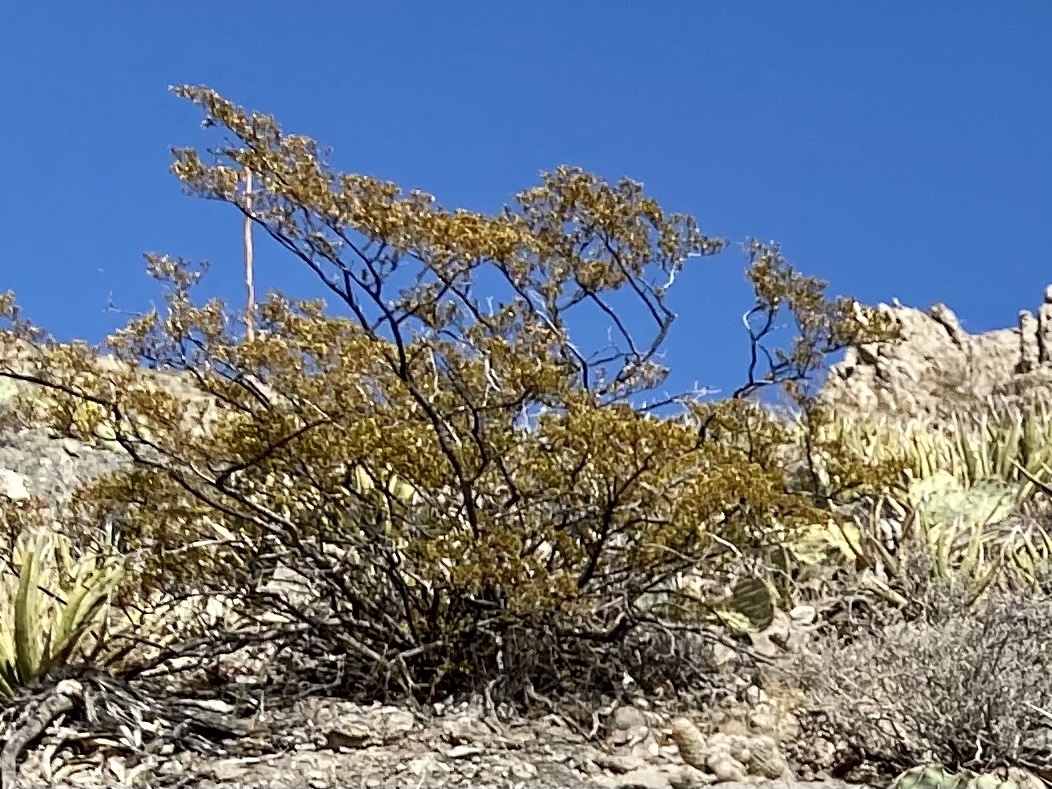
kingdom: Plantae
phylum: Tracheophyta
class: Magnoliopsida
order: Zygophyllales
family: Zygophyllaceae
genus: Larrea
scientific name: Larrea tridentata
